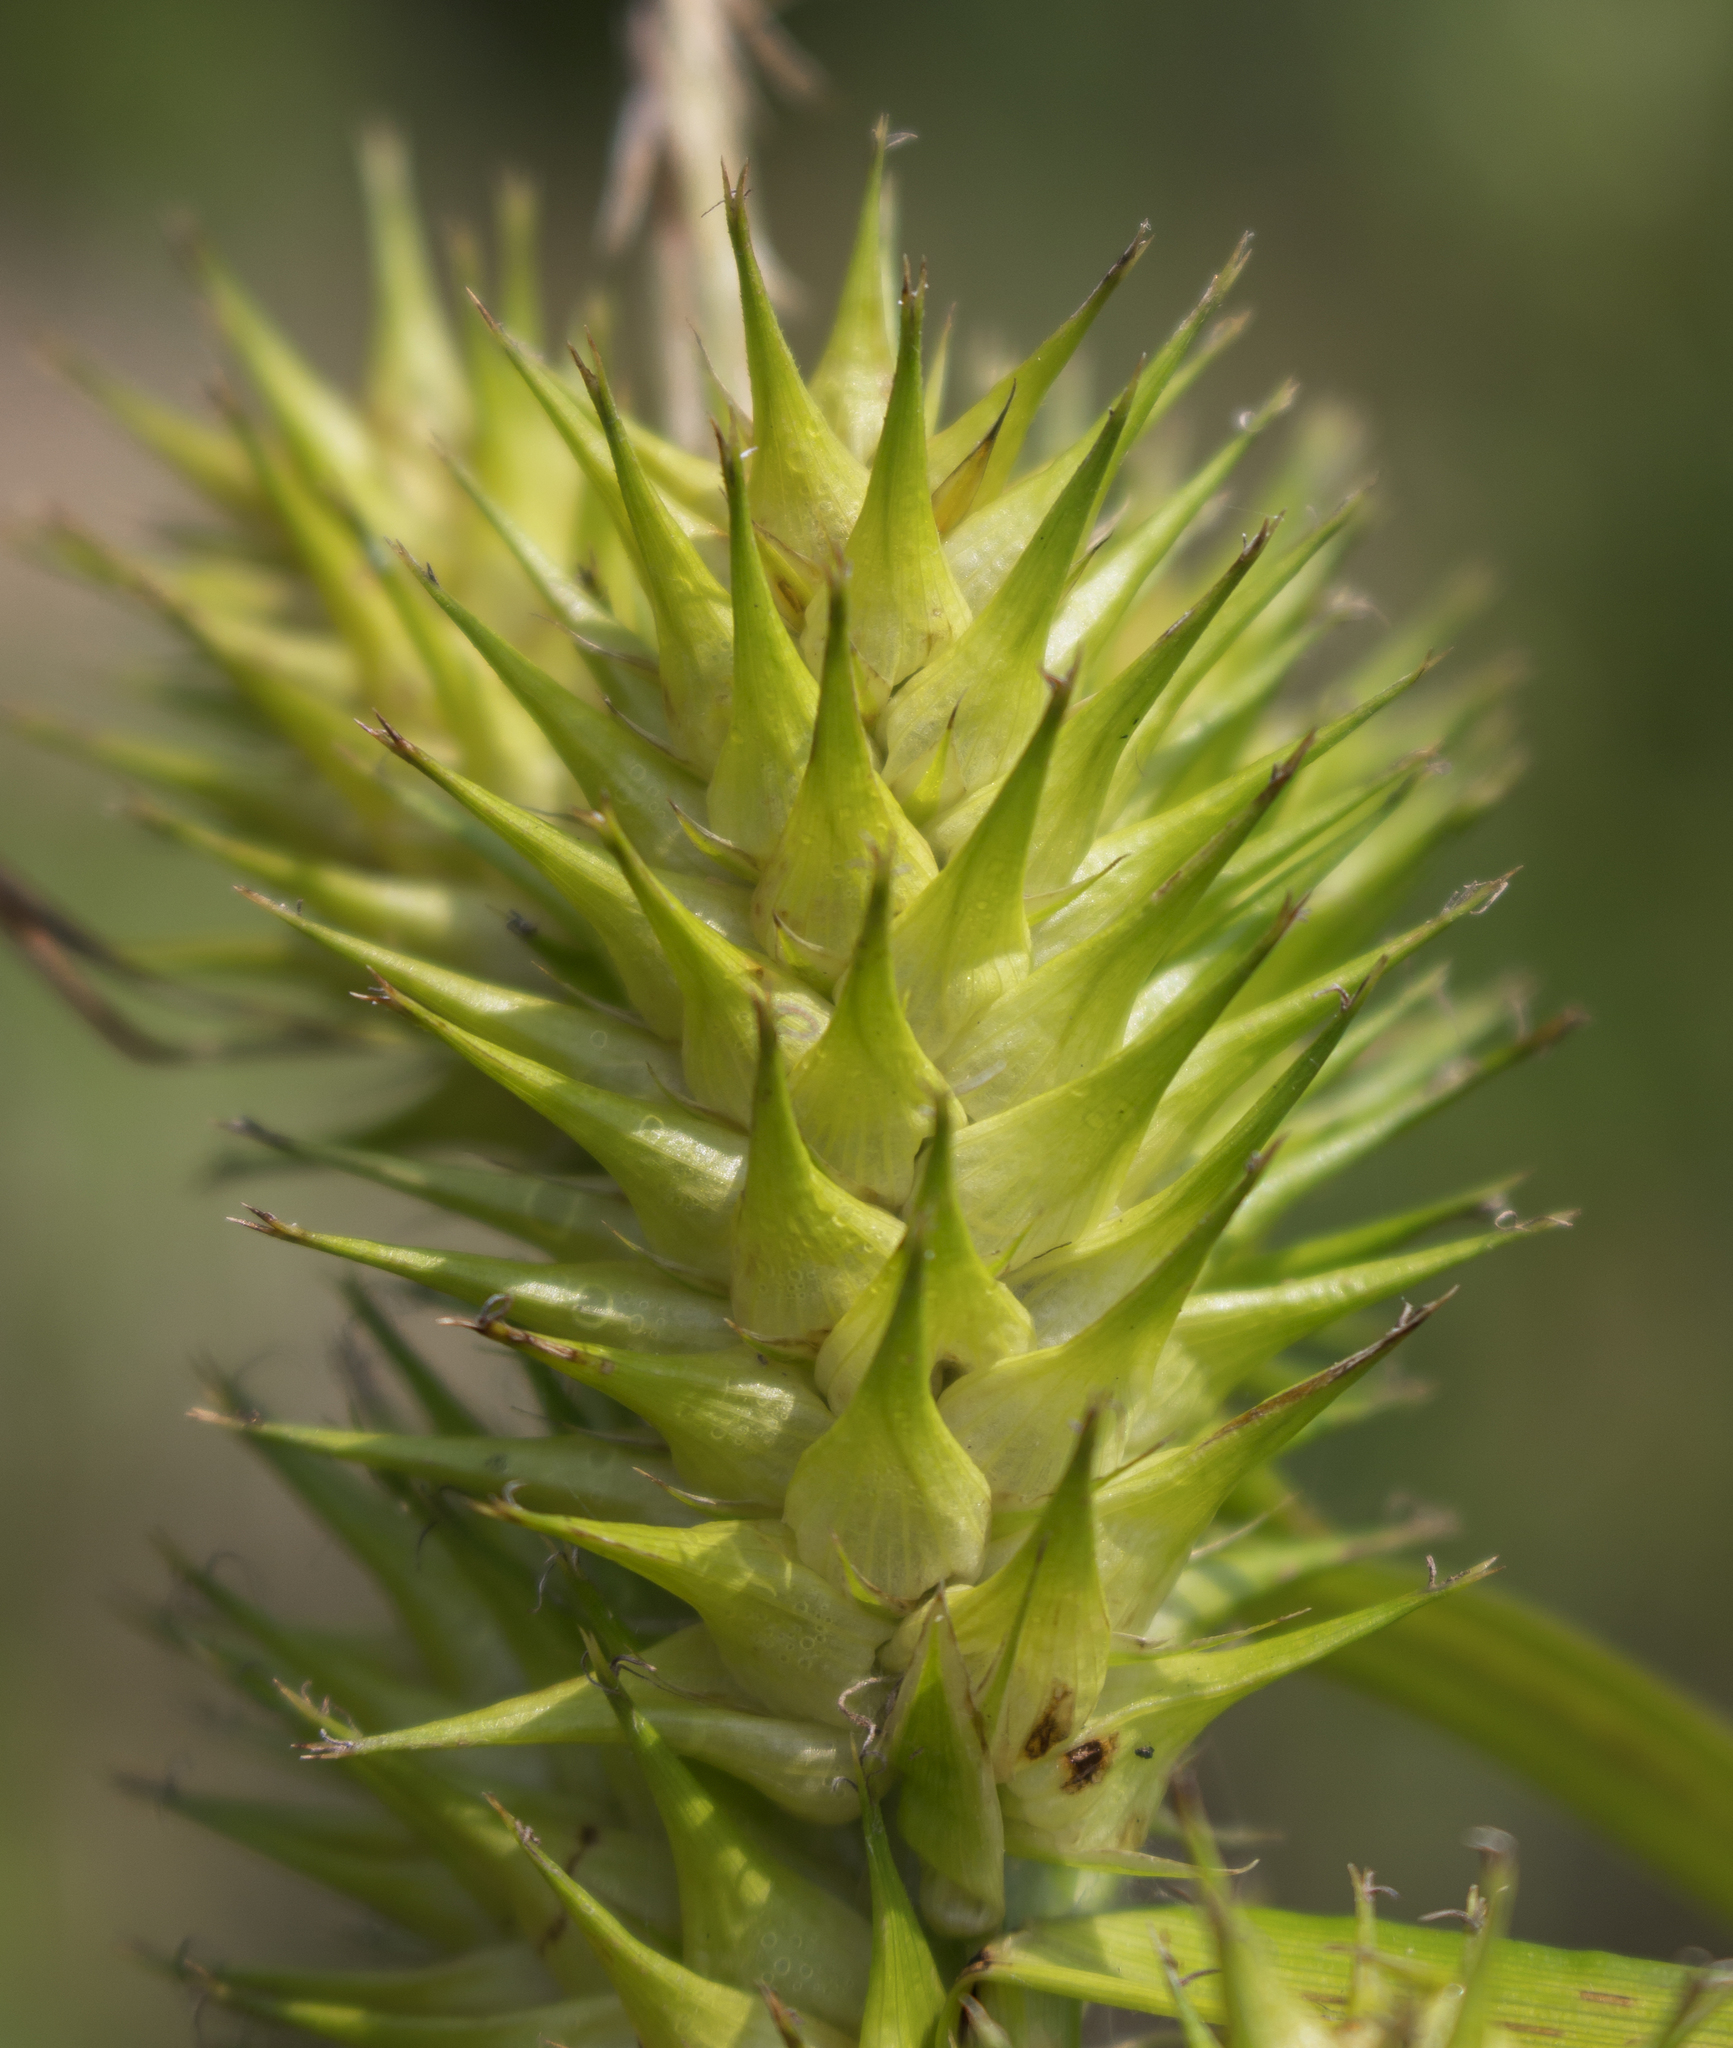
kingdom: Plantae
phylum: Tracheophyta
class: Liliopsida
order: Poales
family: Cyperaceae
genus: Carex
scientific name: Carex lupulina
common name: Hop sedge
